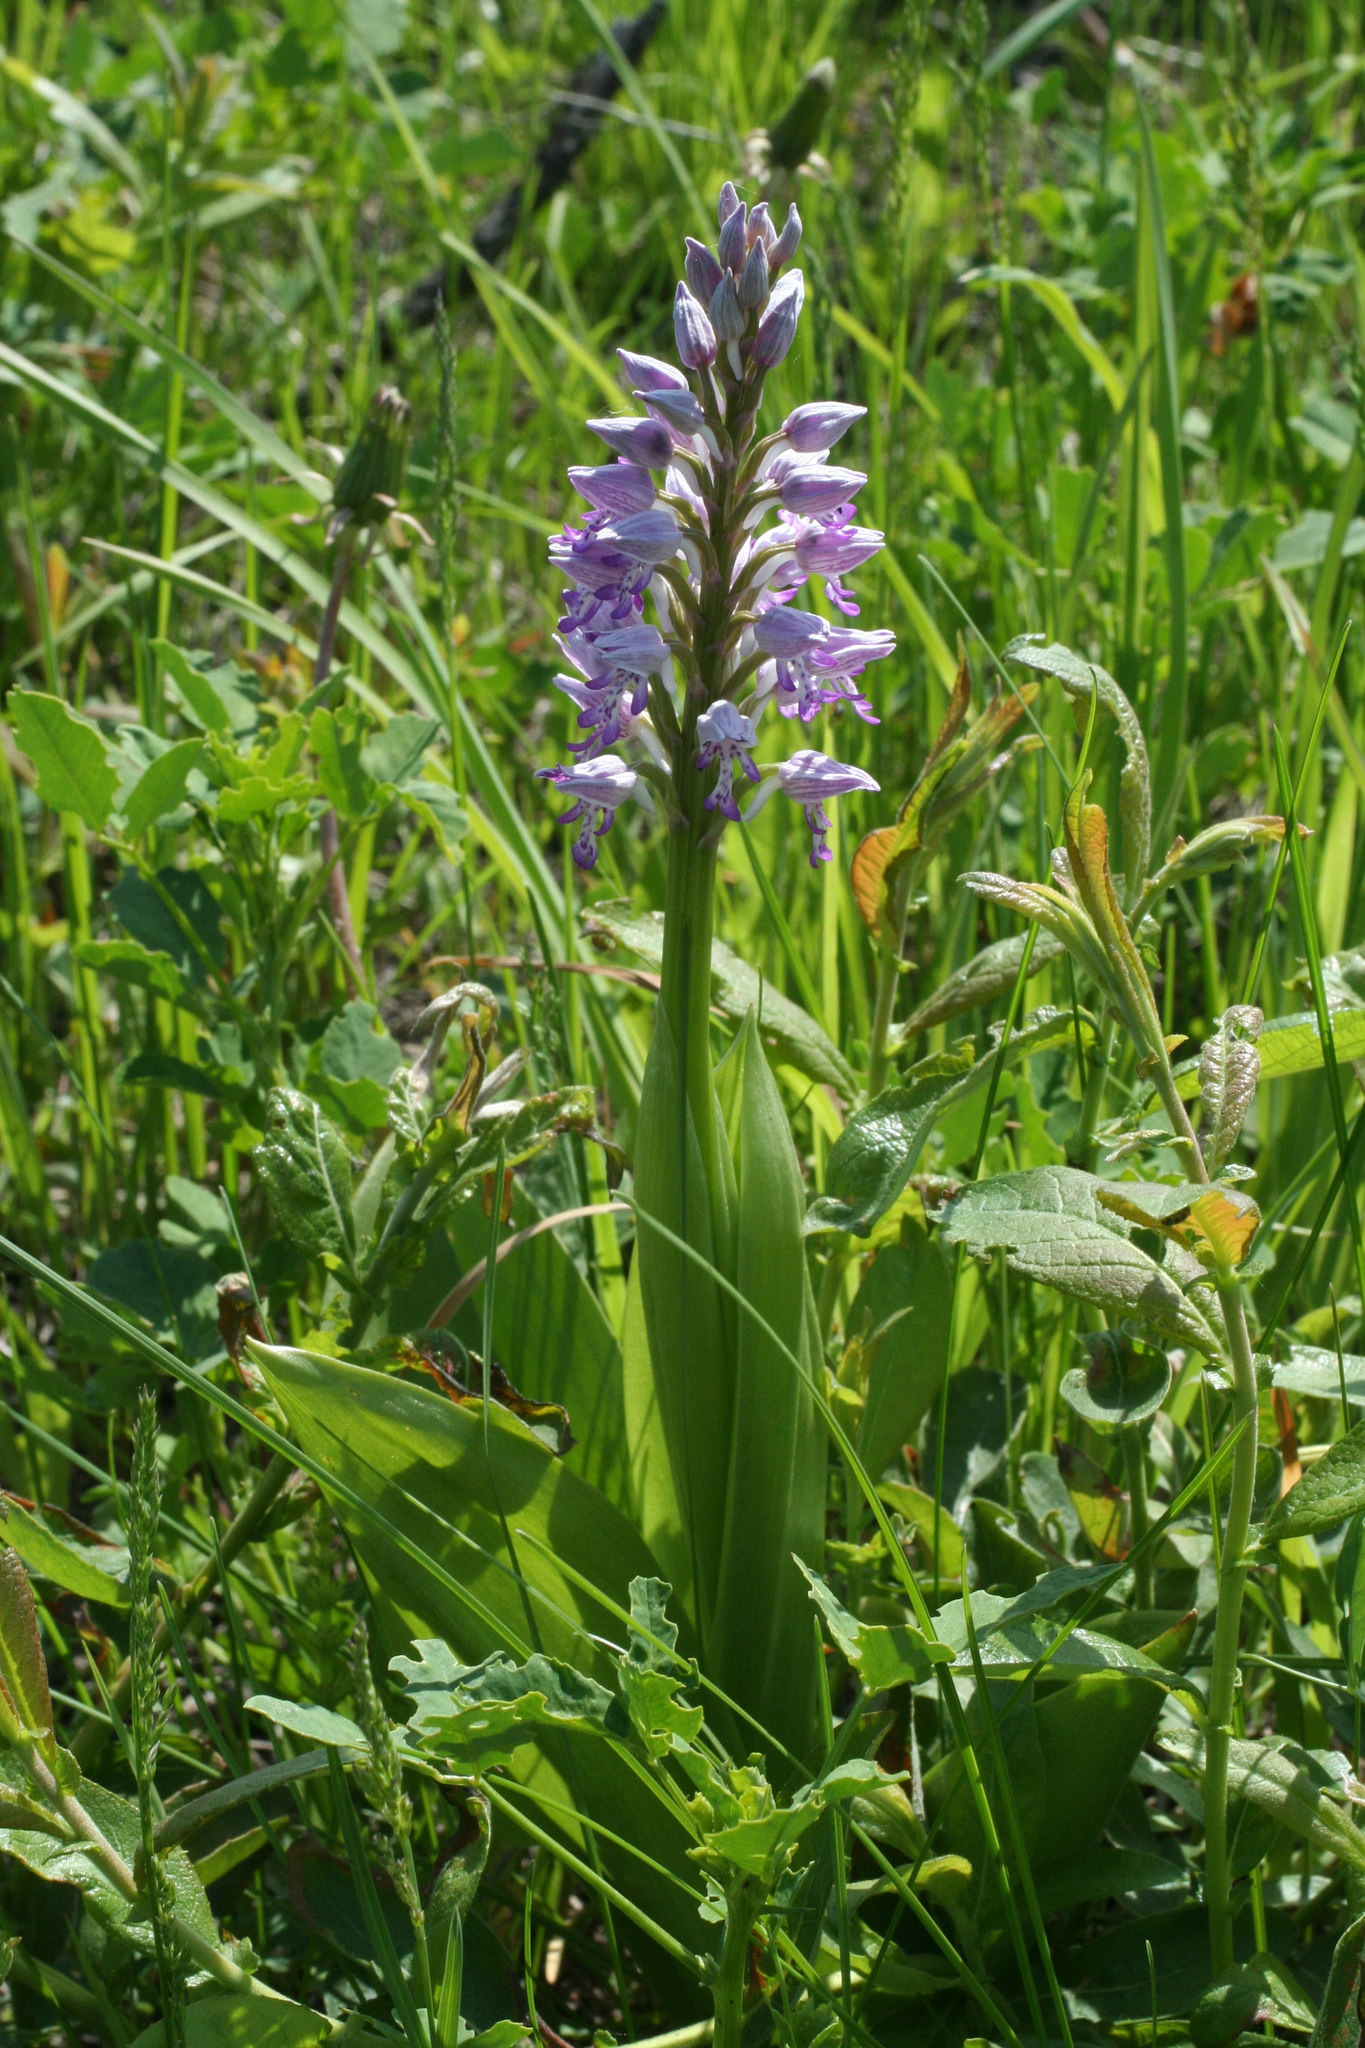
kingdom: Plantae
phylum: Tracheophyta
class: Liliopsida
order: Asparagales
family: Orchidaceae
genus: Orchis
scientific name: Orchis militaris
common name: Military orchid
